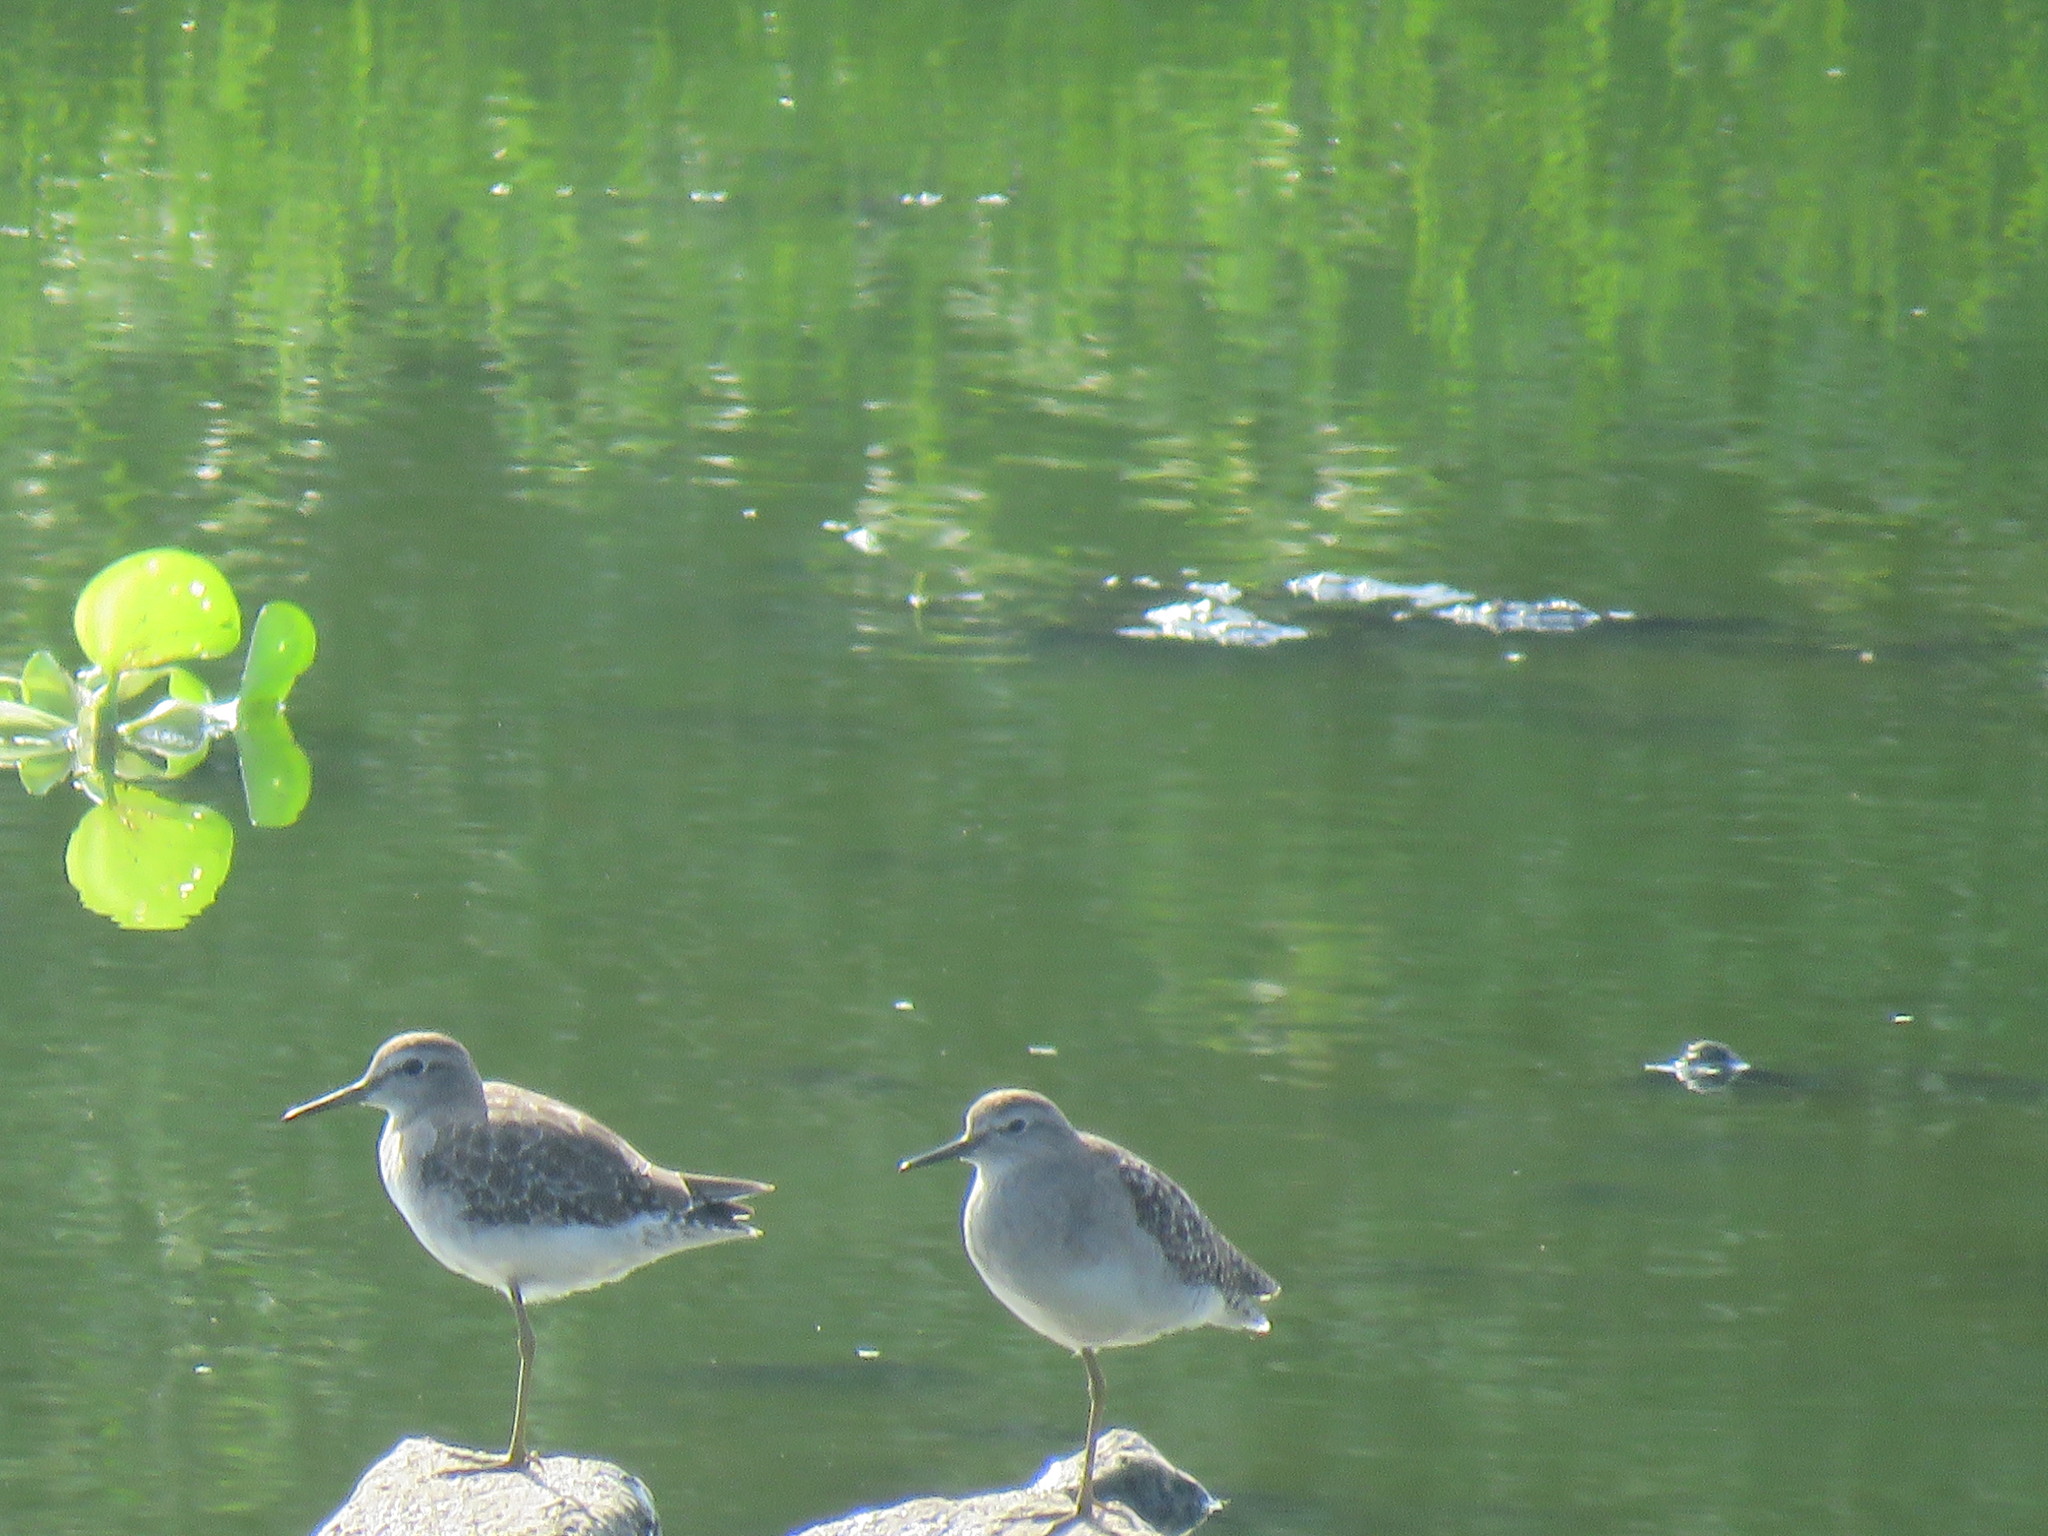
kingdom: Animalia
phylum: Chordata
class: Aves
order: Charadriiformes
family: Scolopacidae
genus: Tringa
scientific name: Tringa glareola
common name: Wood sandpiper
